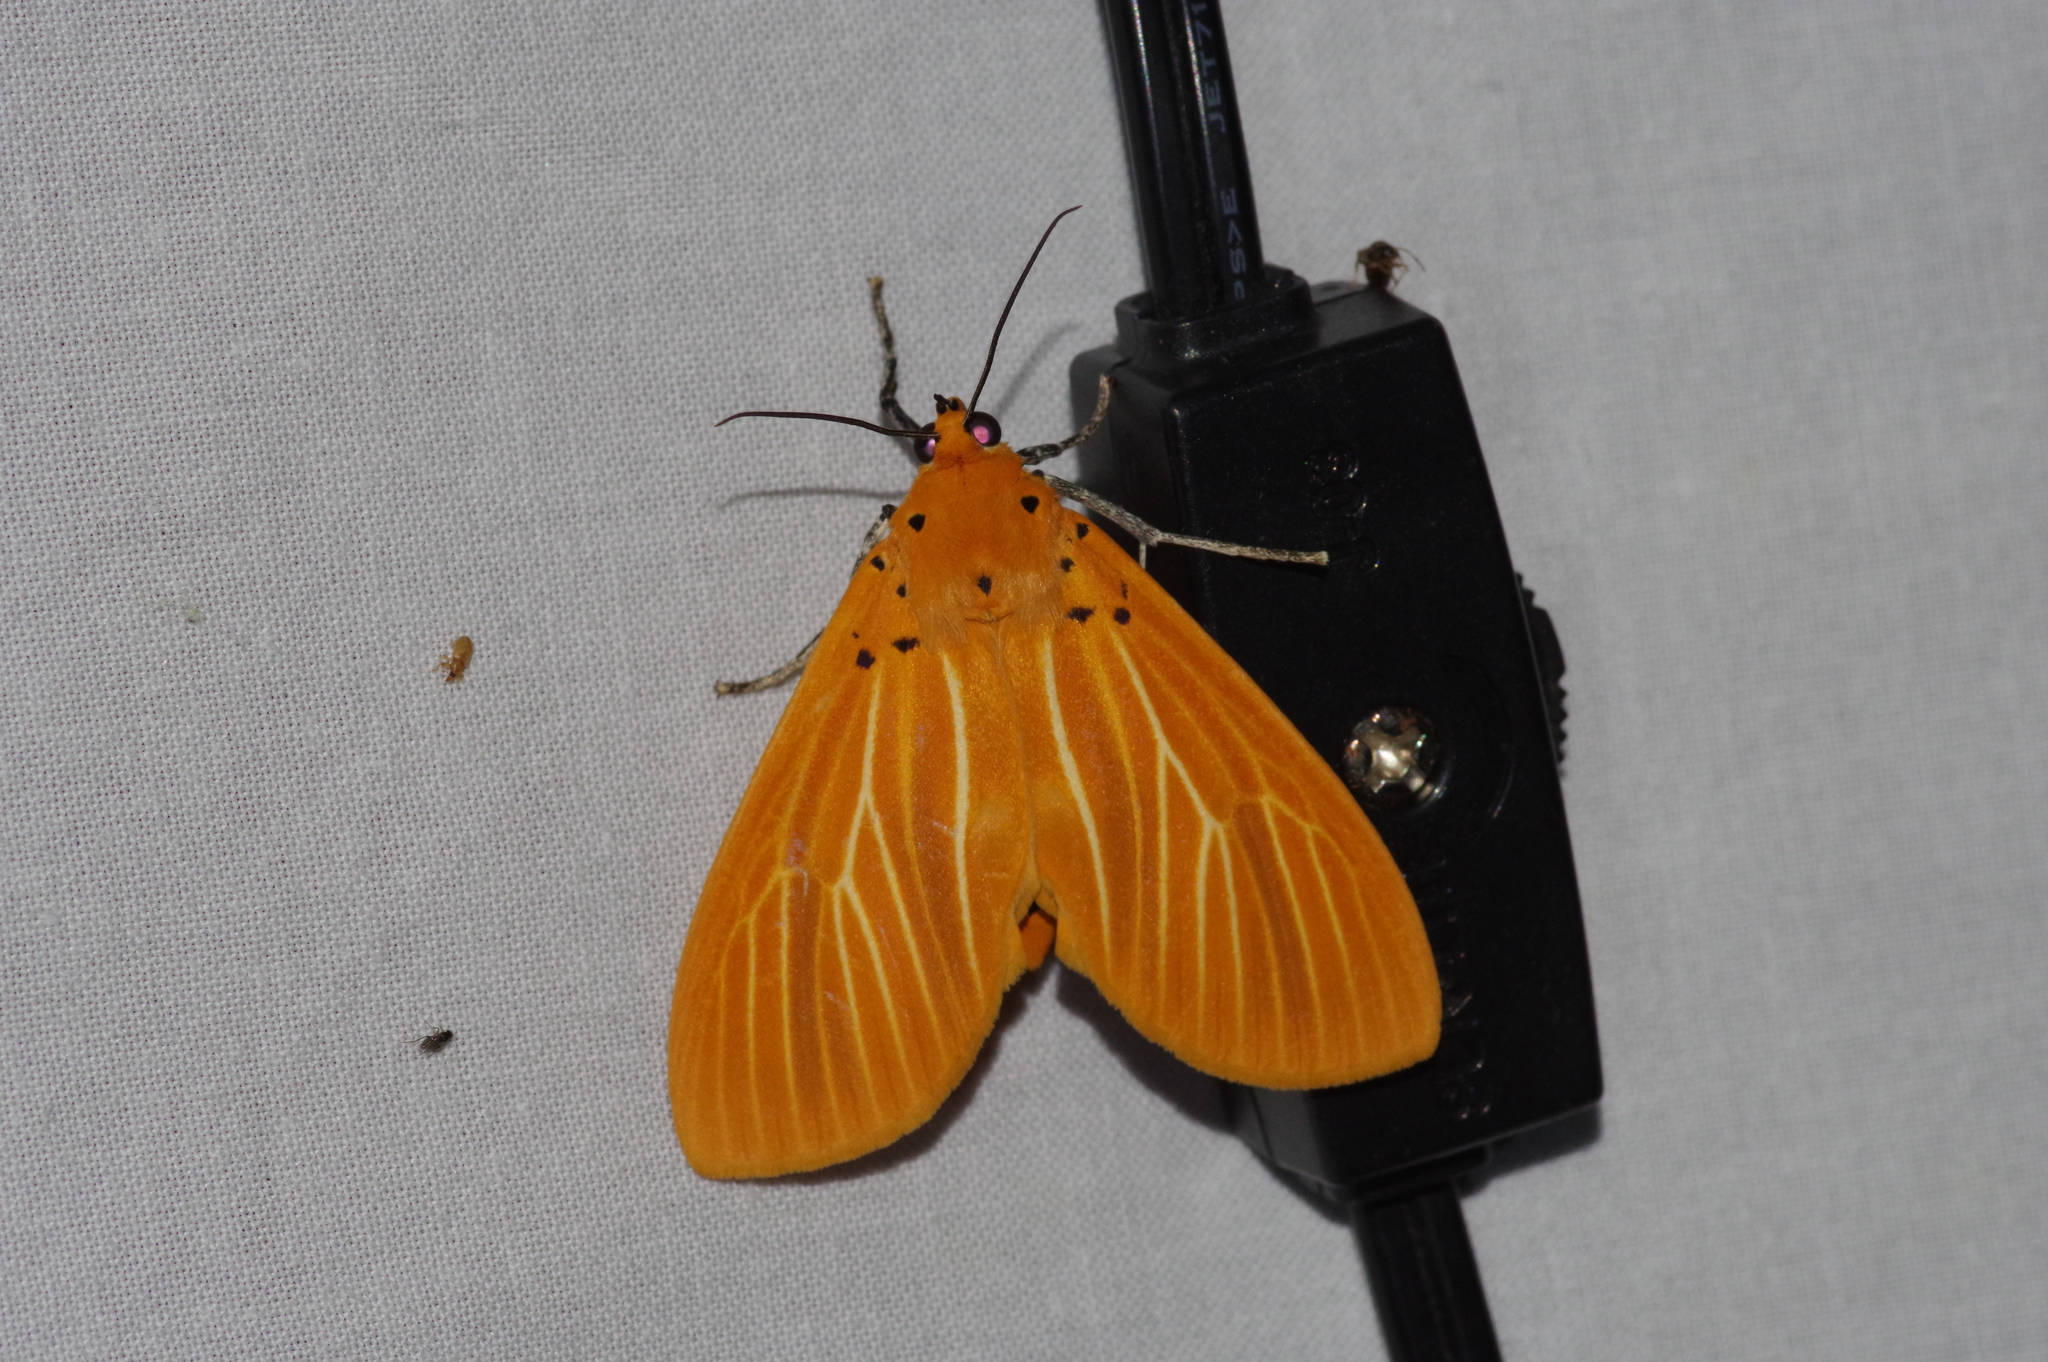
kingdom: Animalia
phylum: Arthropoda
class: Insecta
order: Lepidoptera
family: Erebidae
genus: Asota
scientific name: Asota egens
